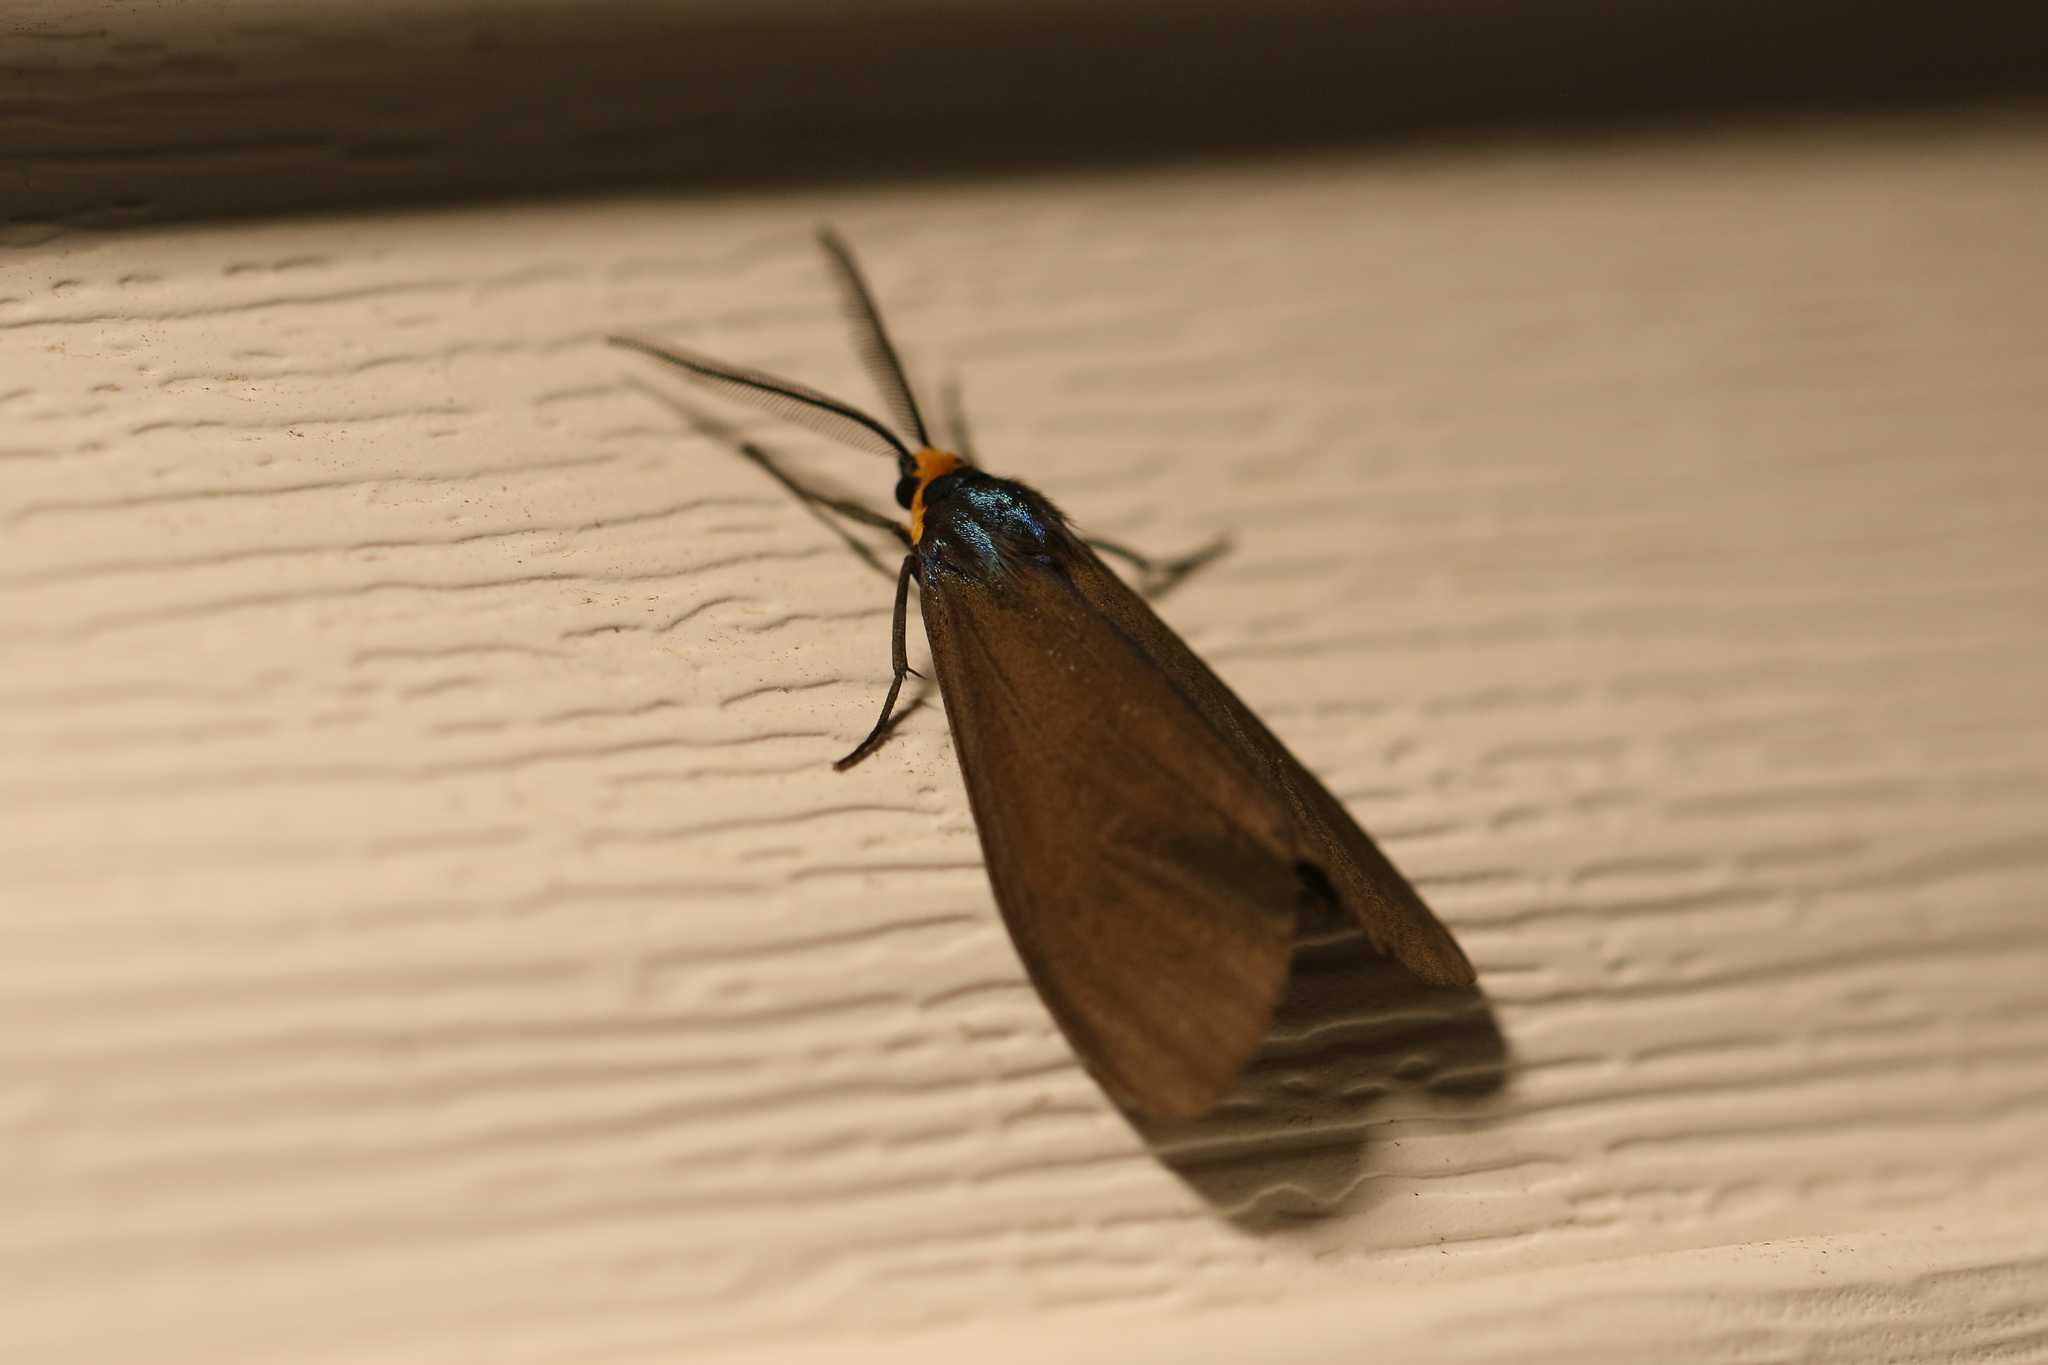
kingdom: Animalia
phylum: Arthropoda
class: Insecta
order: Lepidoptera
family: Erebidae
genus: Ctenucha
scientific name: Ctenucha virginica
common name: Virginia ctenucha moth
